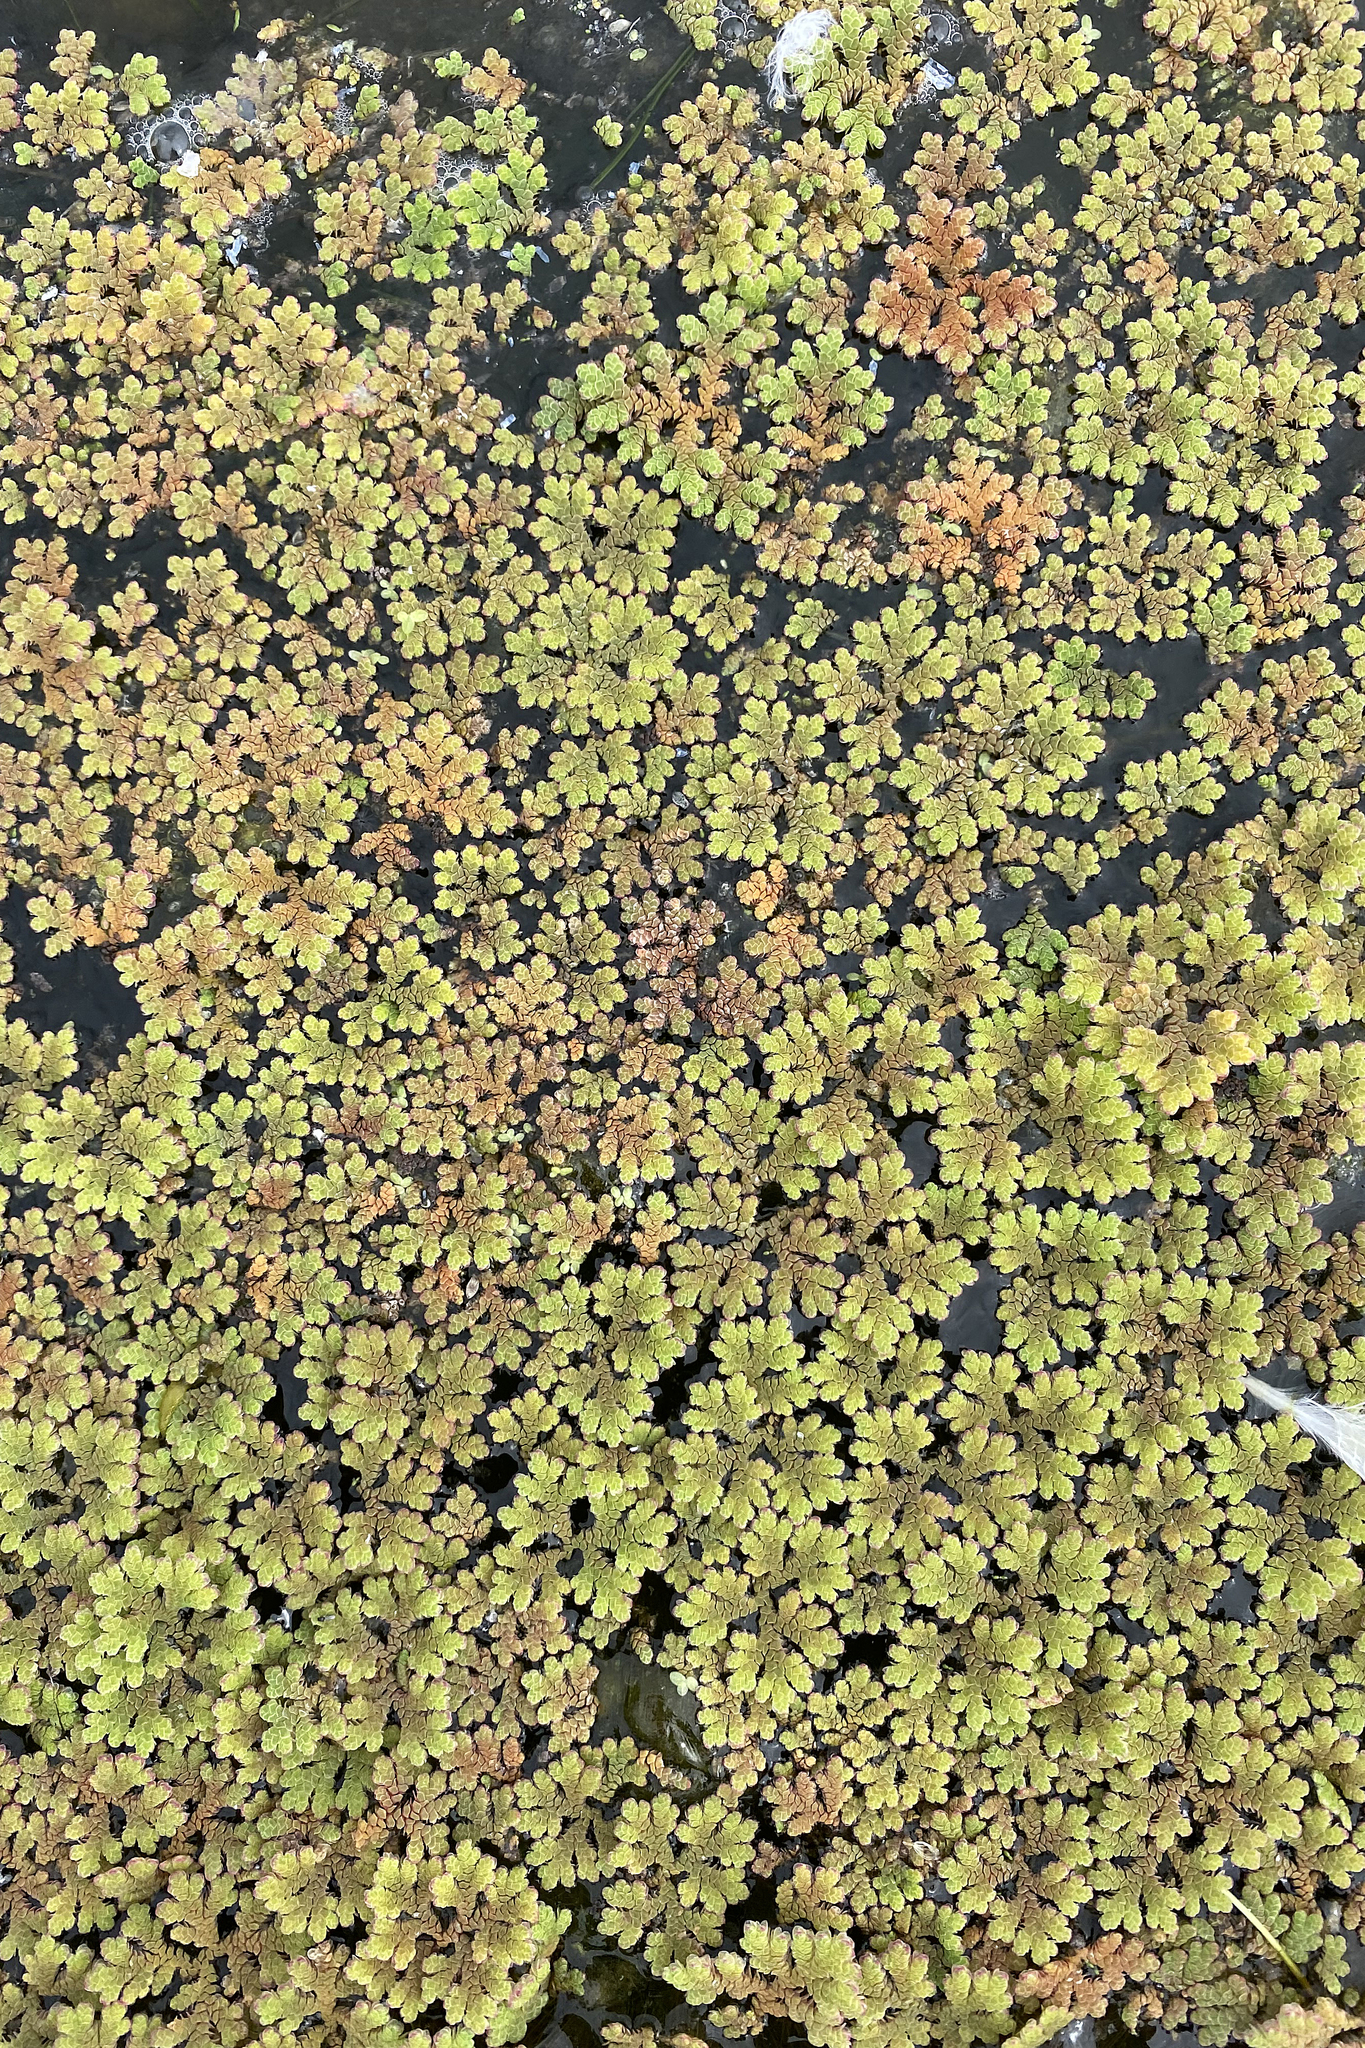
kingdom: Plantae
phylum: Tracheophyta
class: Polypodiopsida
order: Salviniales
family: Salviniaceae
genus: Azolla
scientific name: Azolla rubra
